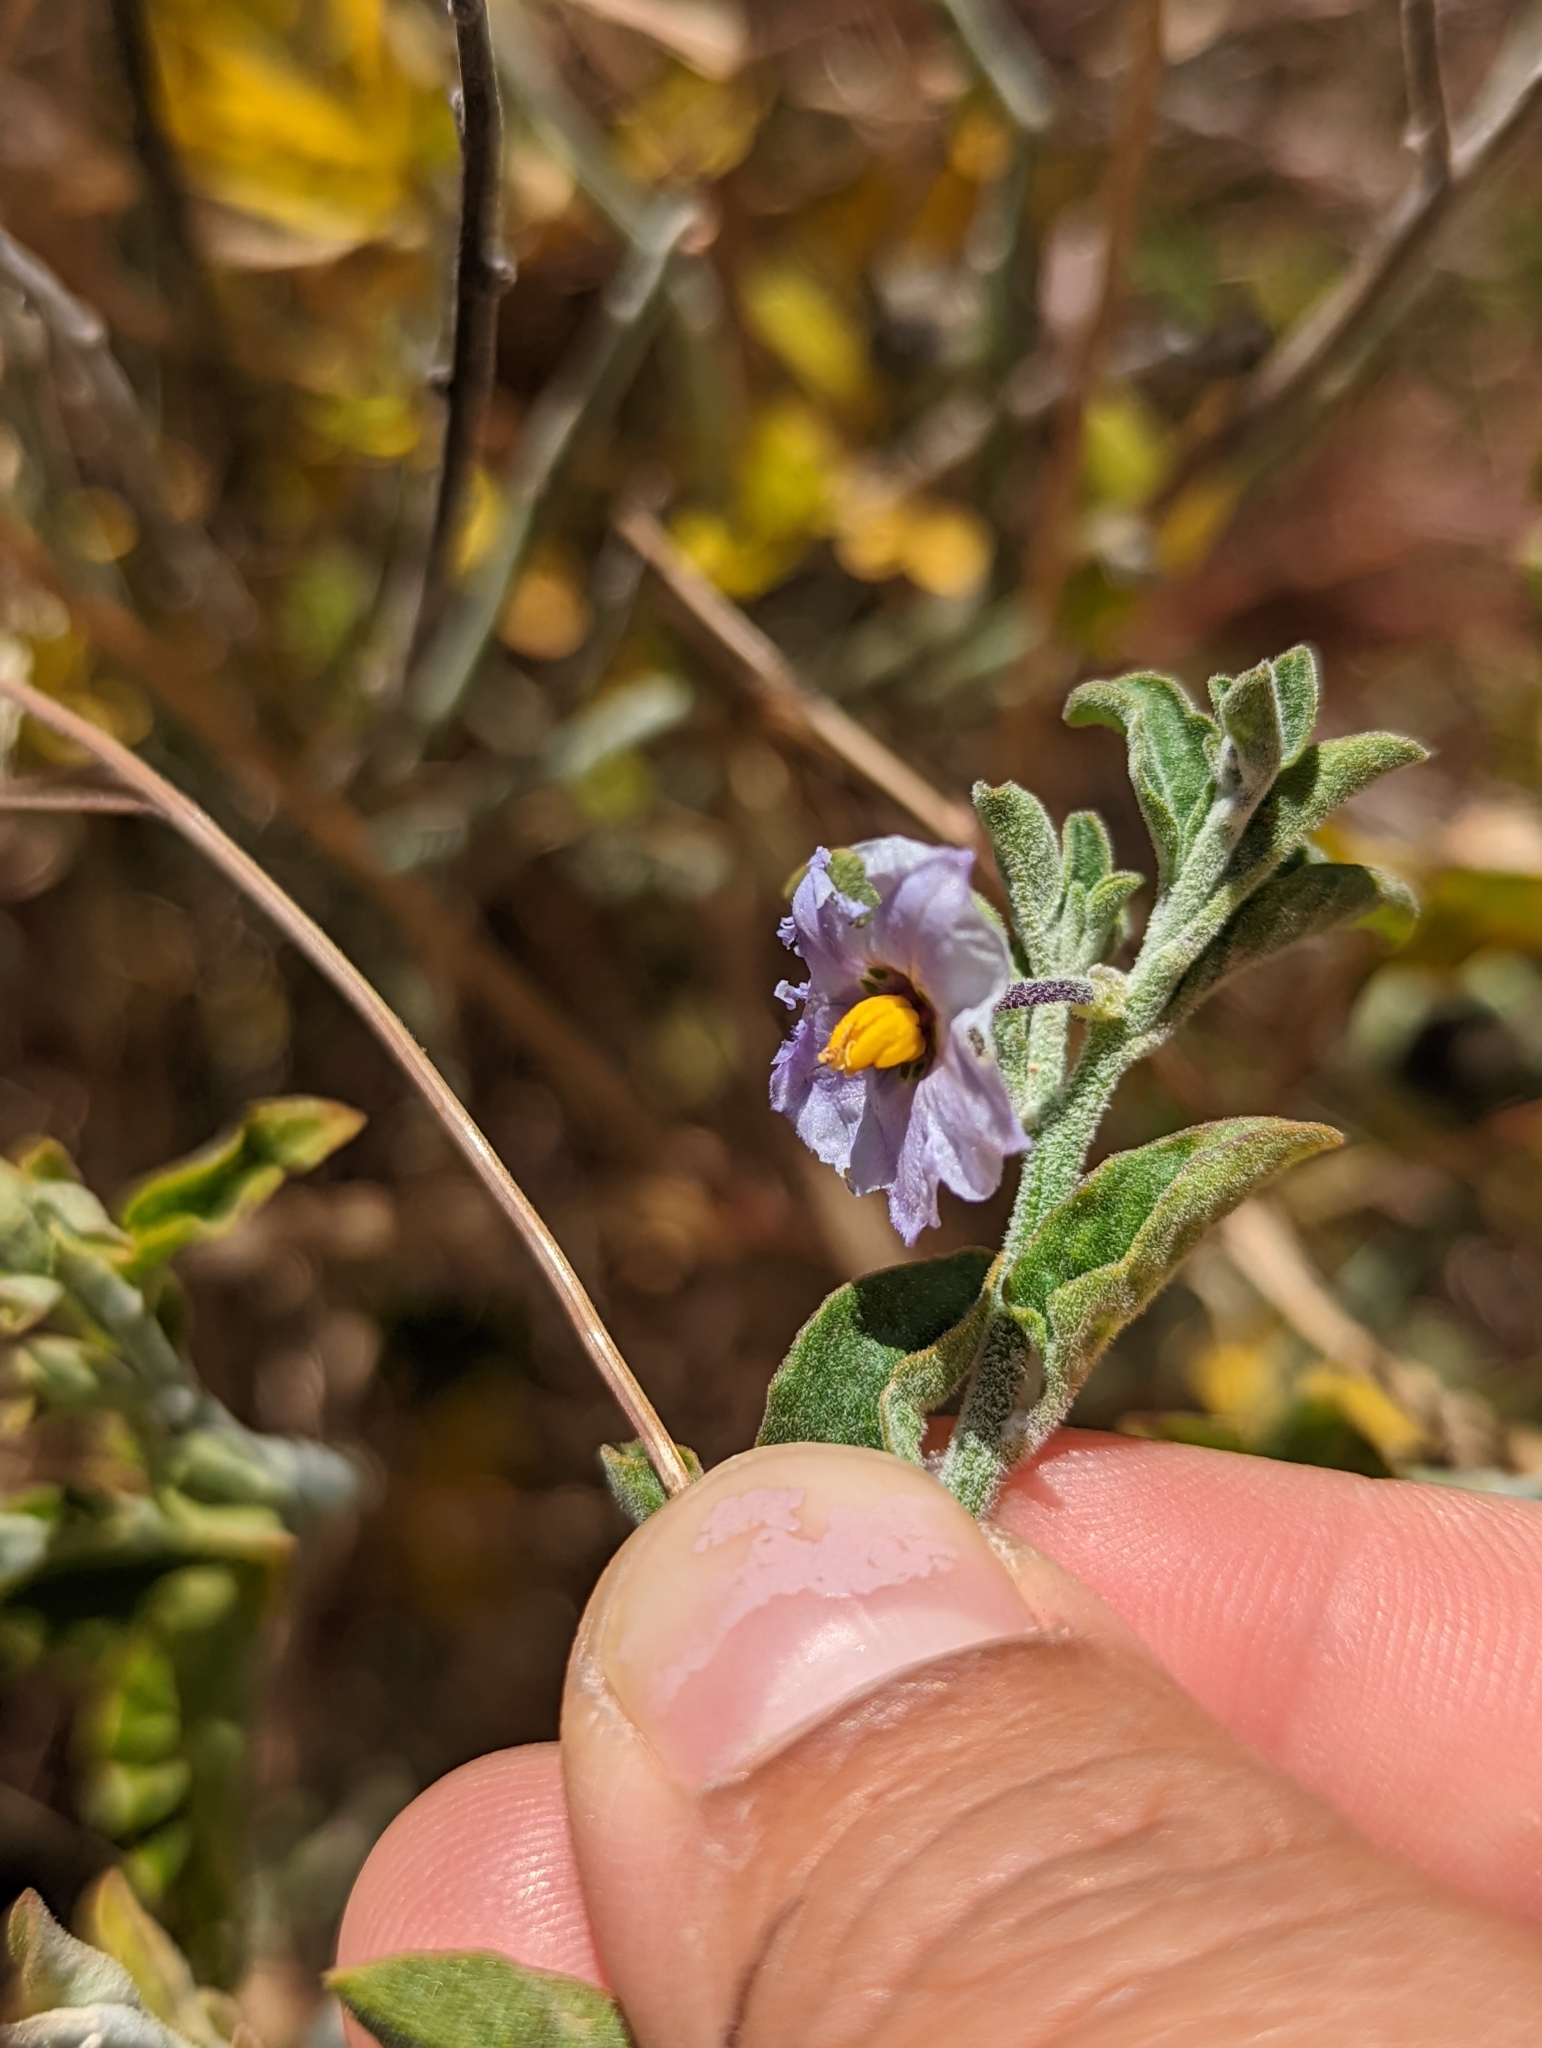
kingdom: Plantae
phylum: Tracheophyta
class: Magnoliopsida
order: Solanales
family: Solanaceae
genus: Solanum
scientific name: Solanum umbelliferum
